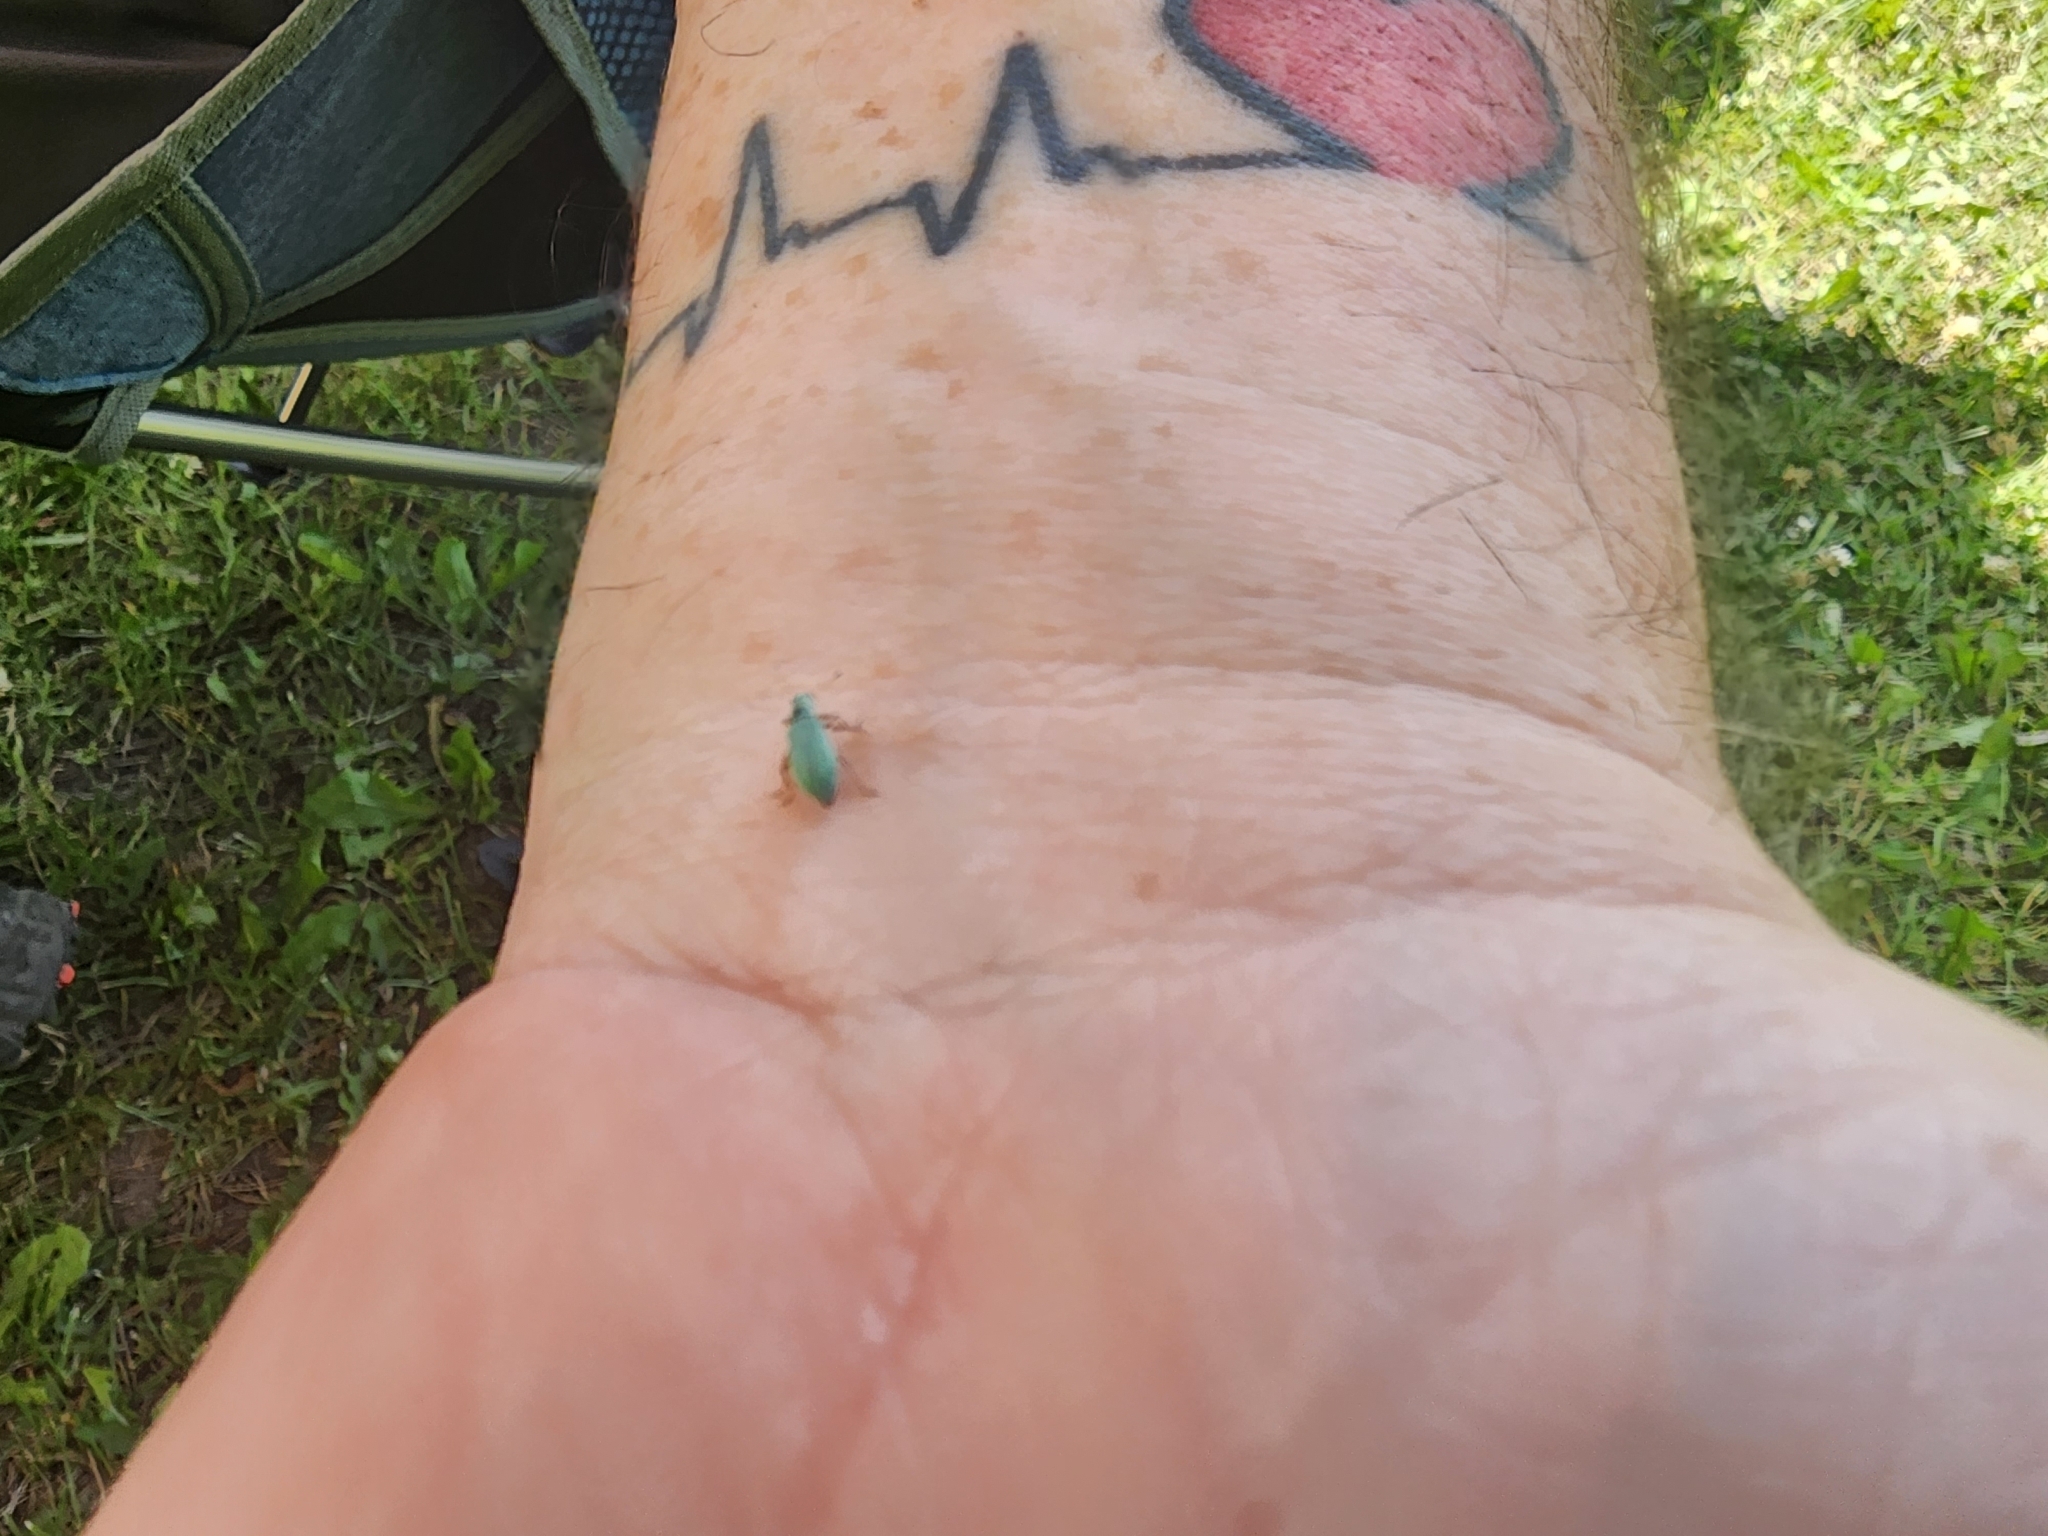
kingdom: Animalia
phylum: Arthropoda
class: Insecta
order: Coleoptera
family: Curculionidae
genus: Polydrusus
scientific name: Polydrusus impressifrons
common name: Weevil
